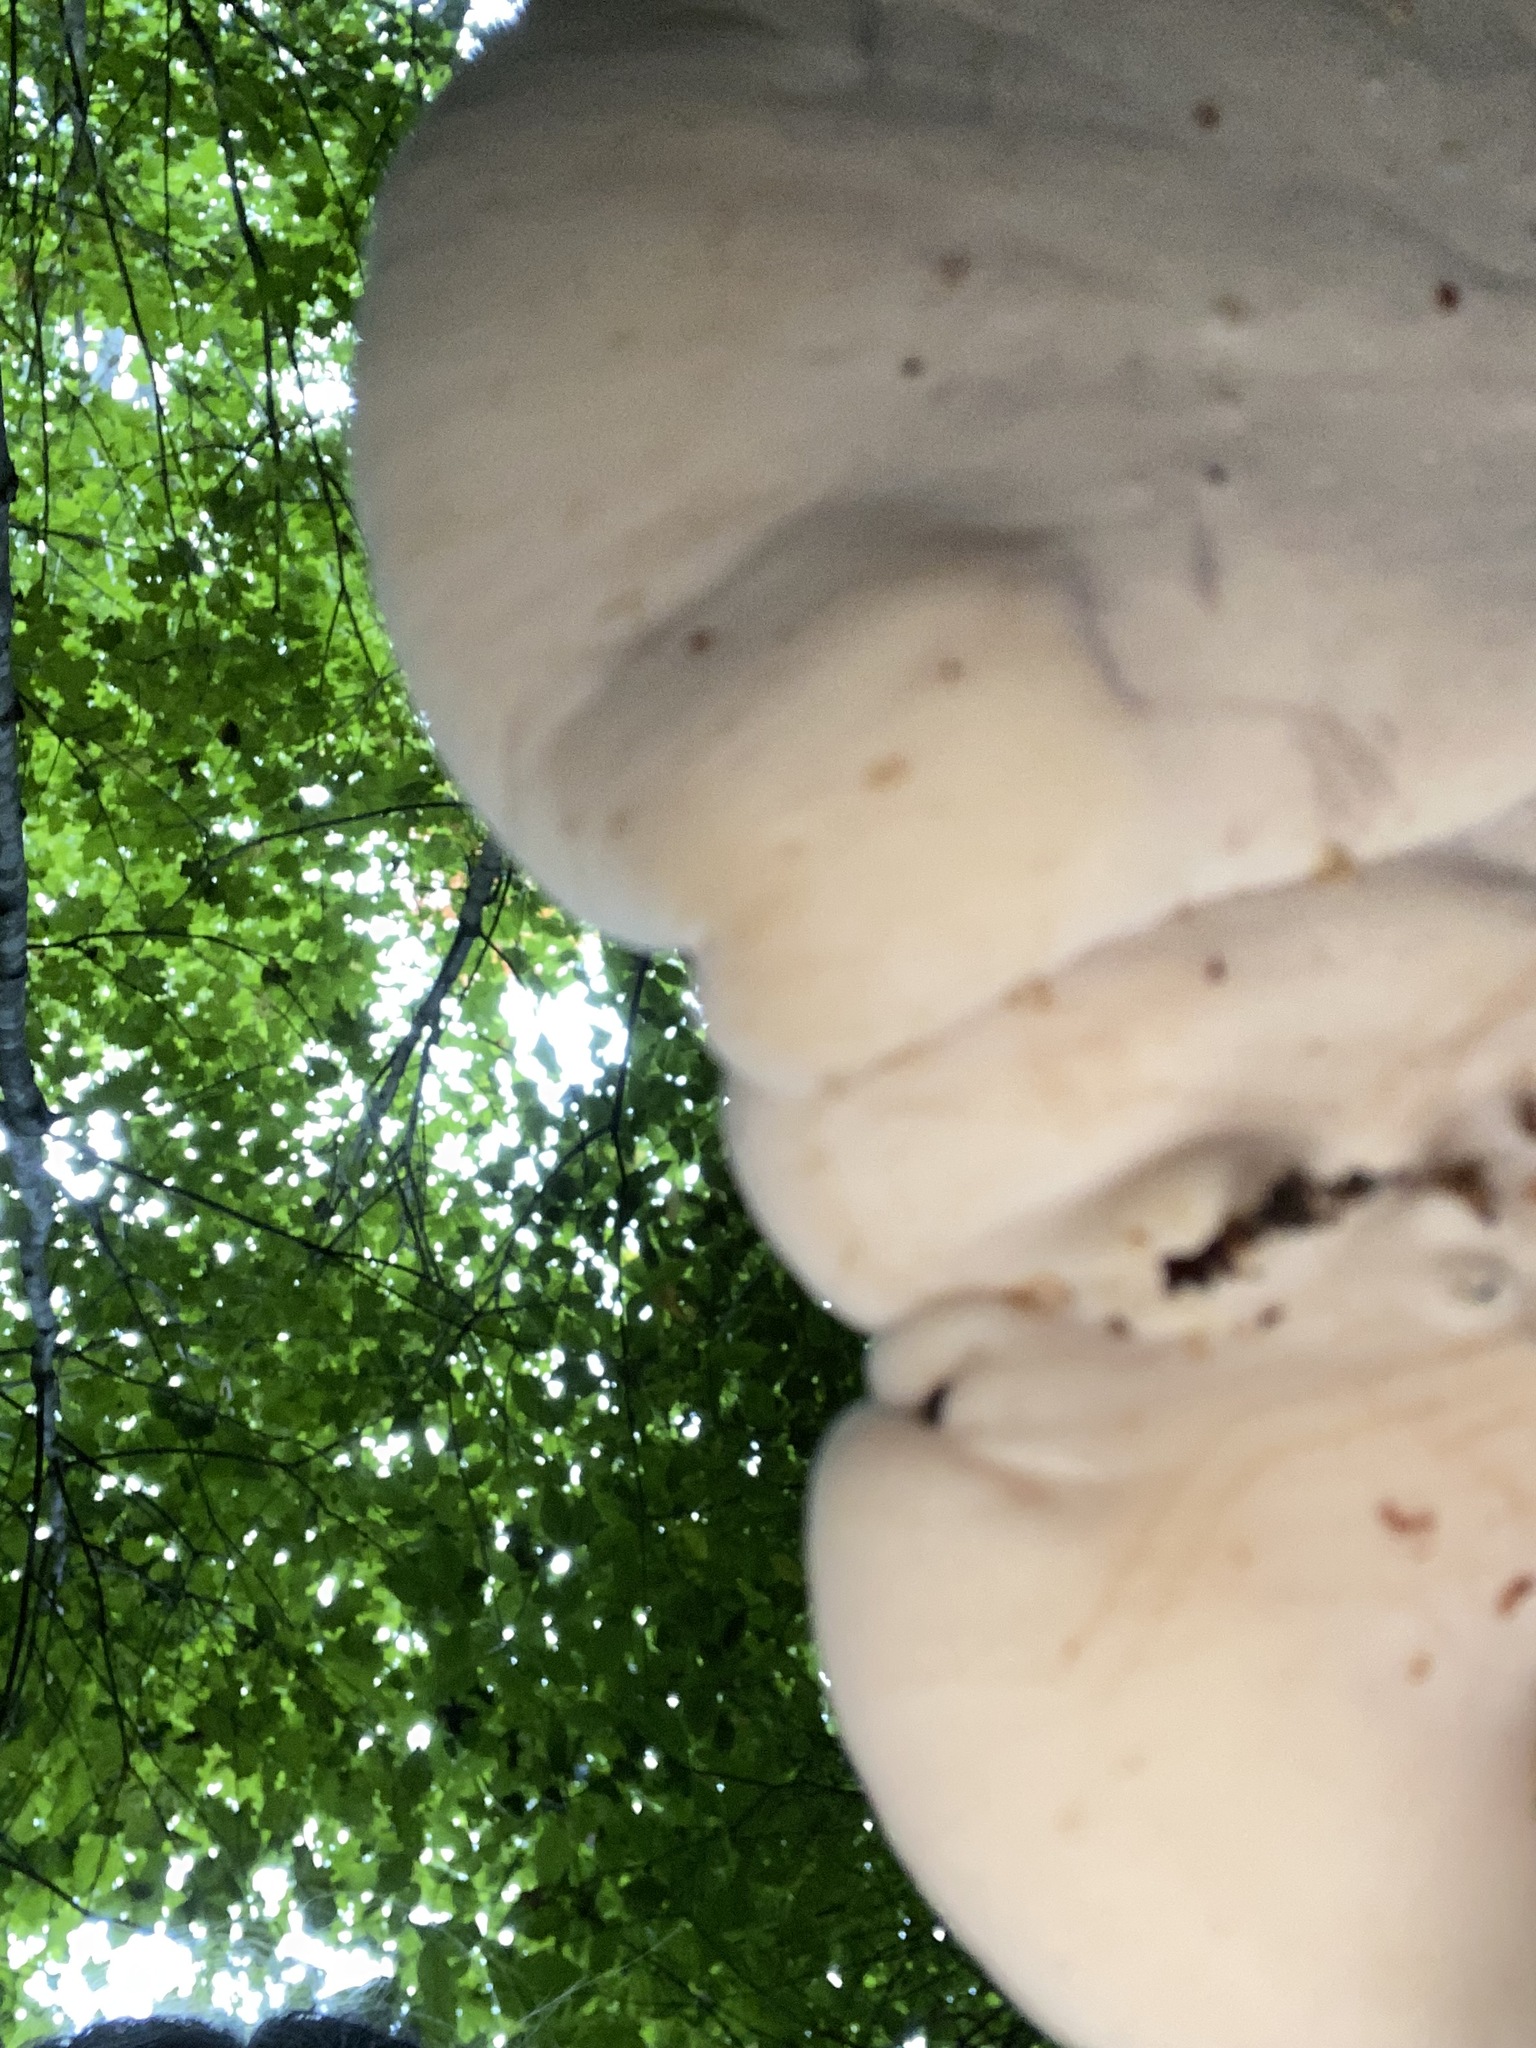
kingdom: Fungi
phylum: Basidiomycota
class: Agaricomycetes
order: Polyporales
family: Ischnodermataceae
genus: Ischnoderma
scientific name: Ischnoderma resinosum
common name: Resinous polypore
